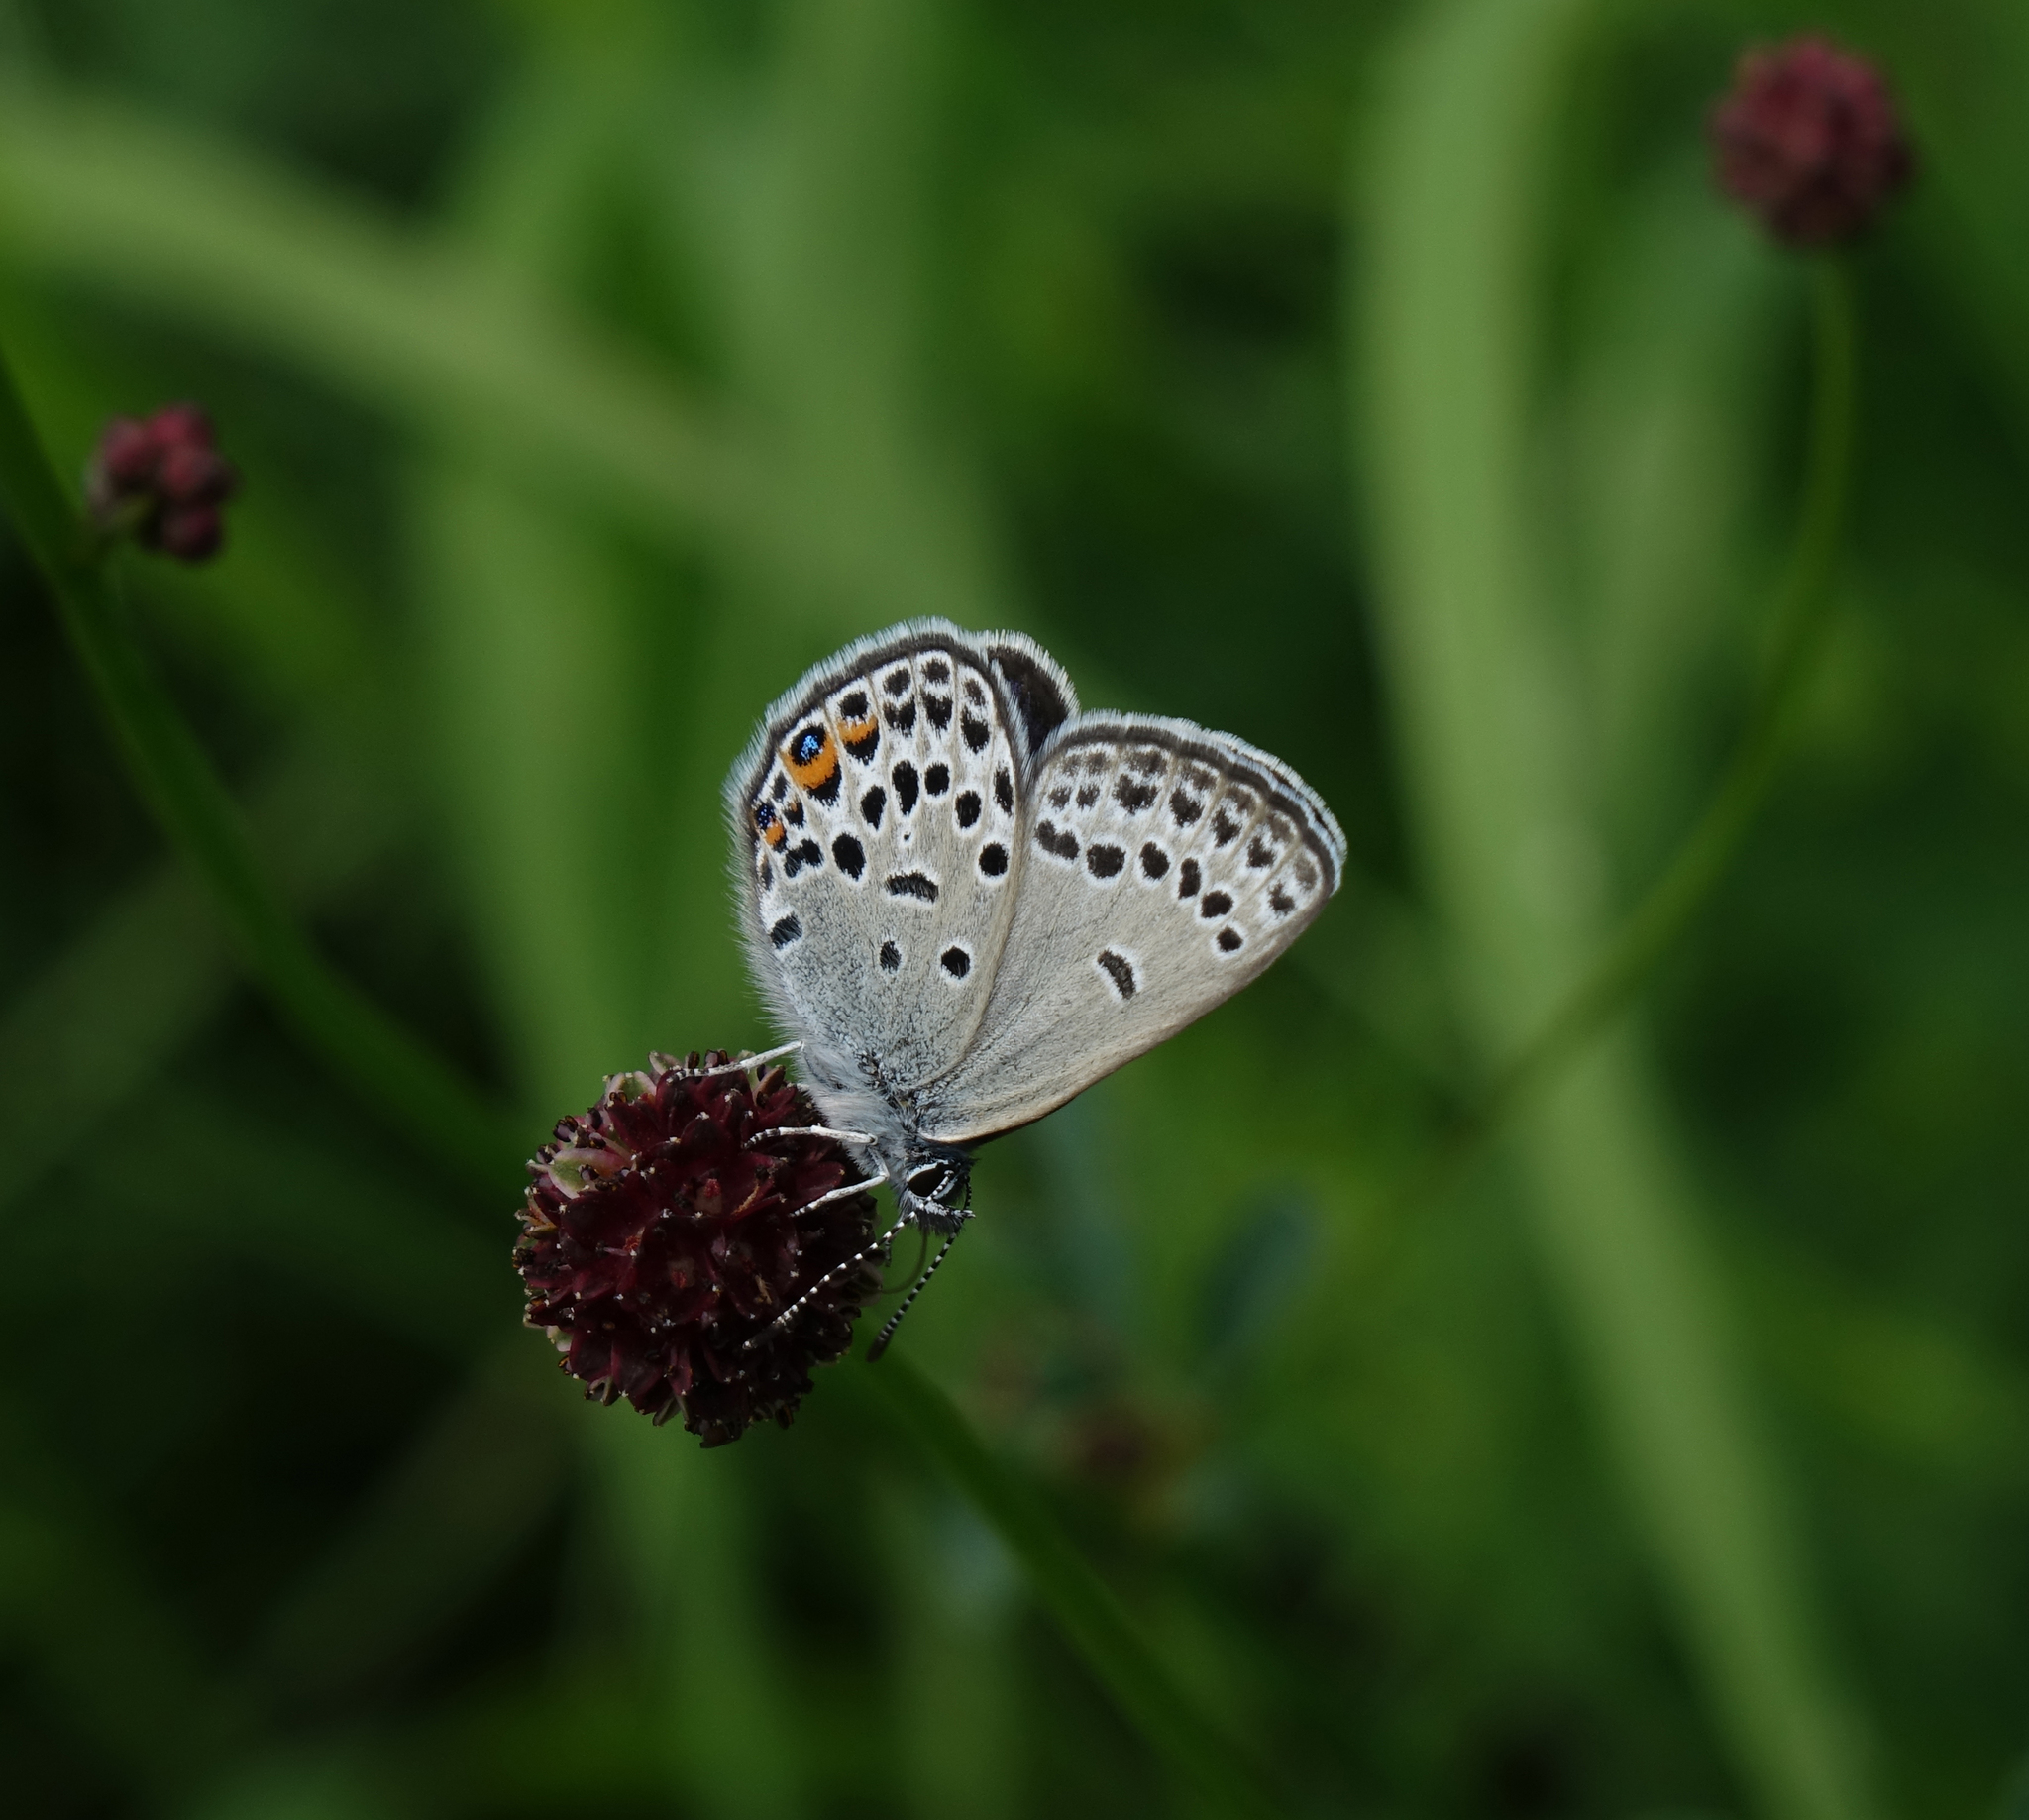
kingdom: Animalia
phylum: Arthropoda
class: Insecta
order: Lepidoptera
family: Lycaenidae
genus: Vacciniina
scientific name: Vacciniina optilete
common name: Cranberry blue
